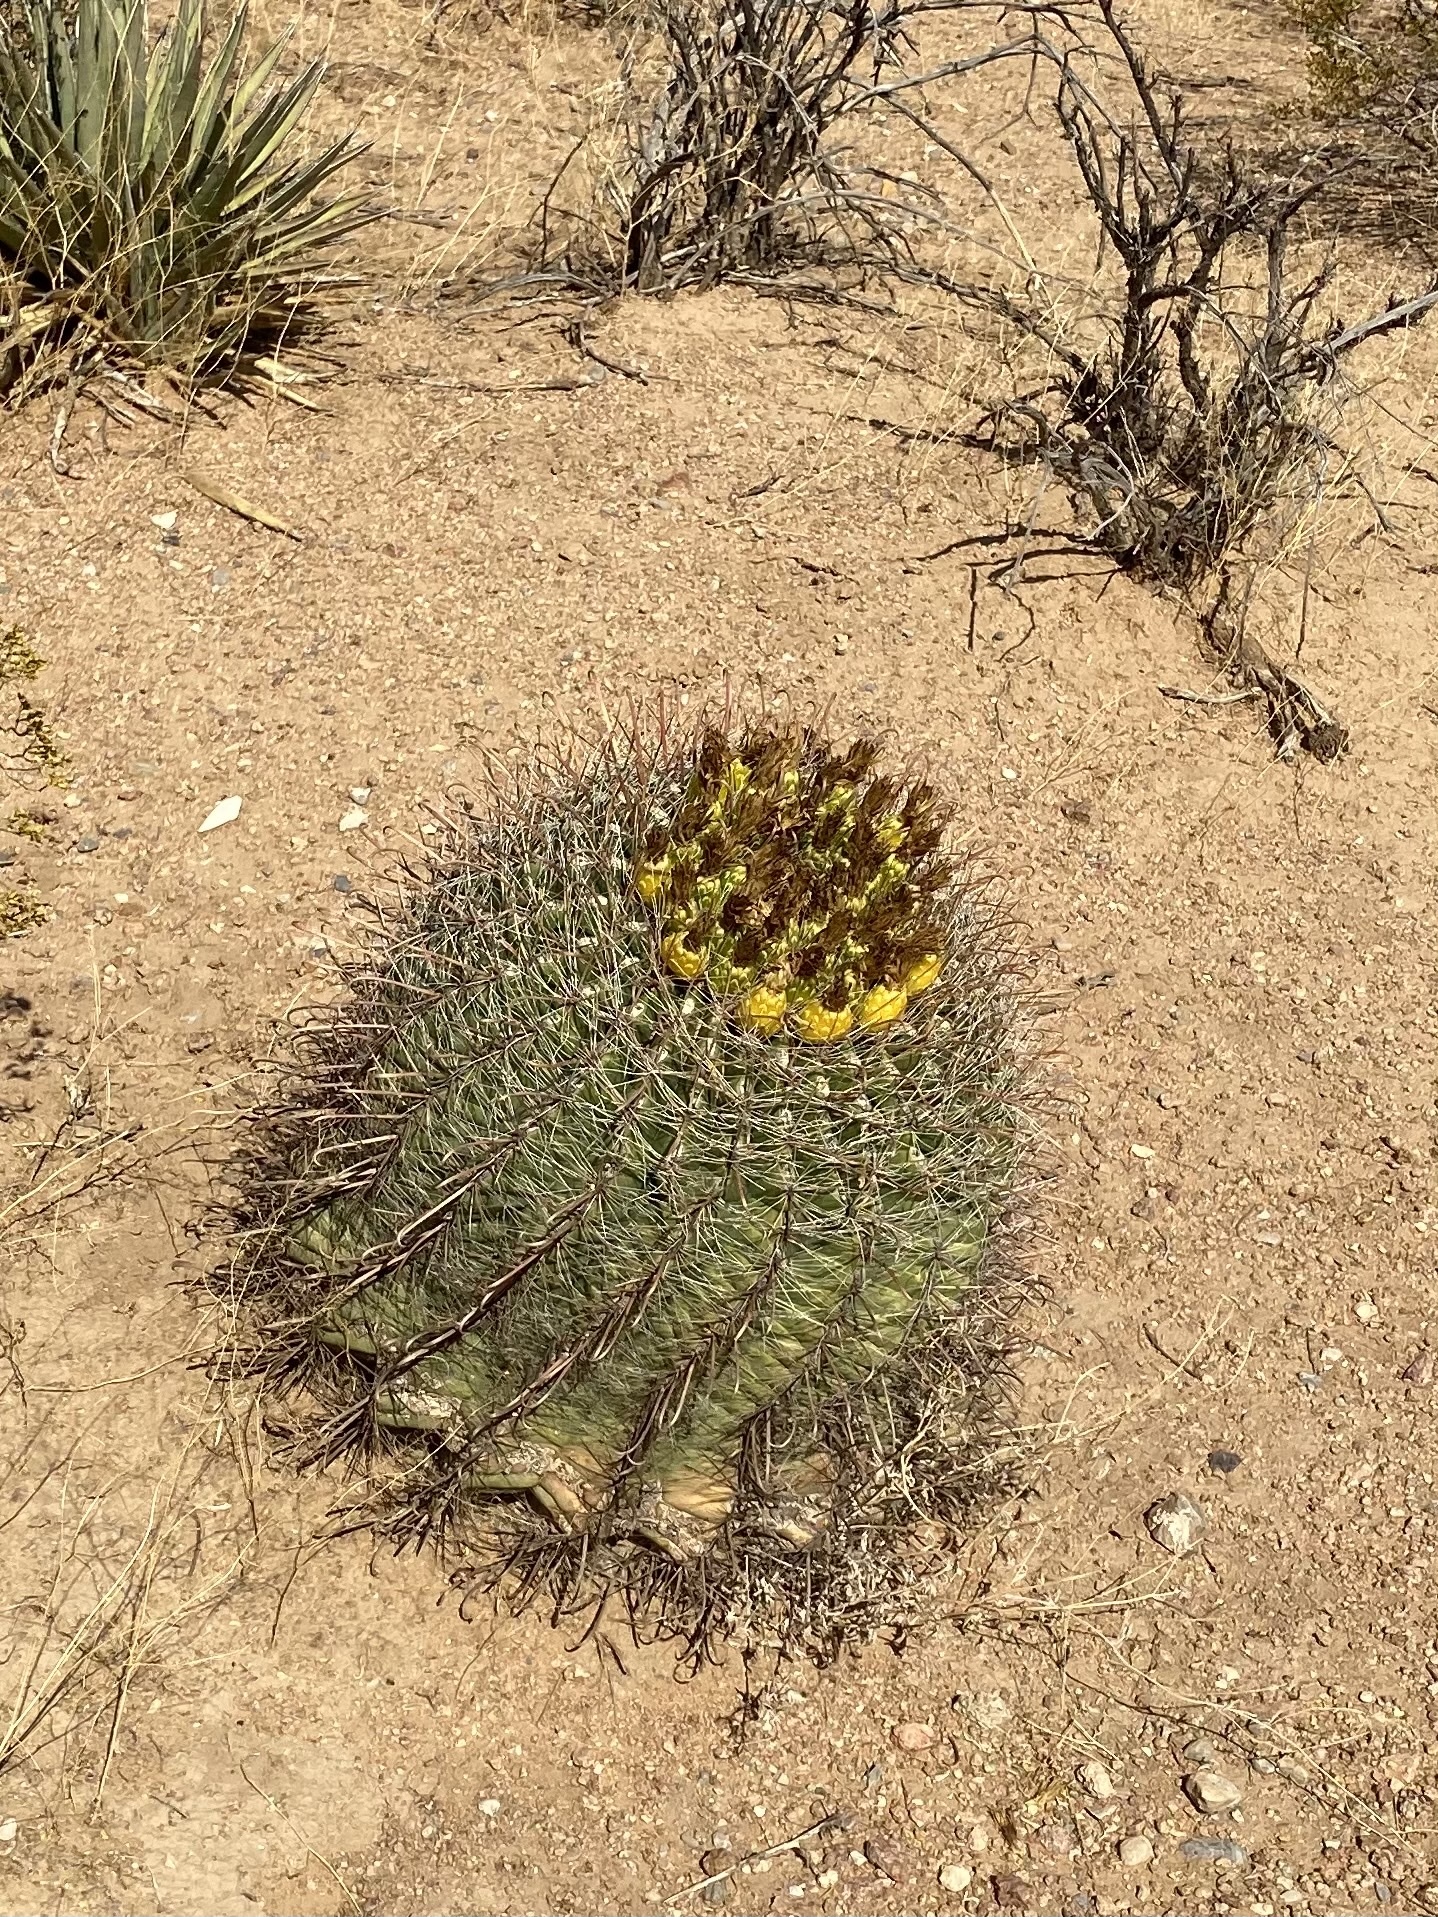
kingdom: Plantae
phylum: Tracheophyta
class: Magnoliopsida
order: Caryophyllales
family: Cactaceae
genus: Ferocactus
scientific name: Ferocactus wislizeni
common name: Candy barrel cactus
